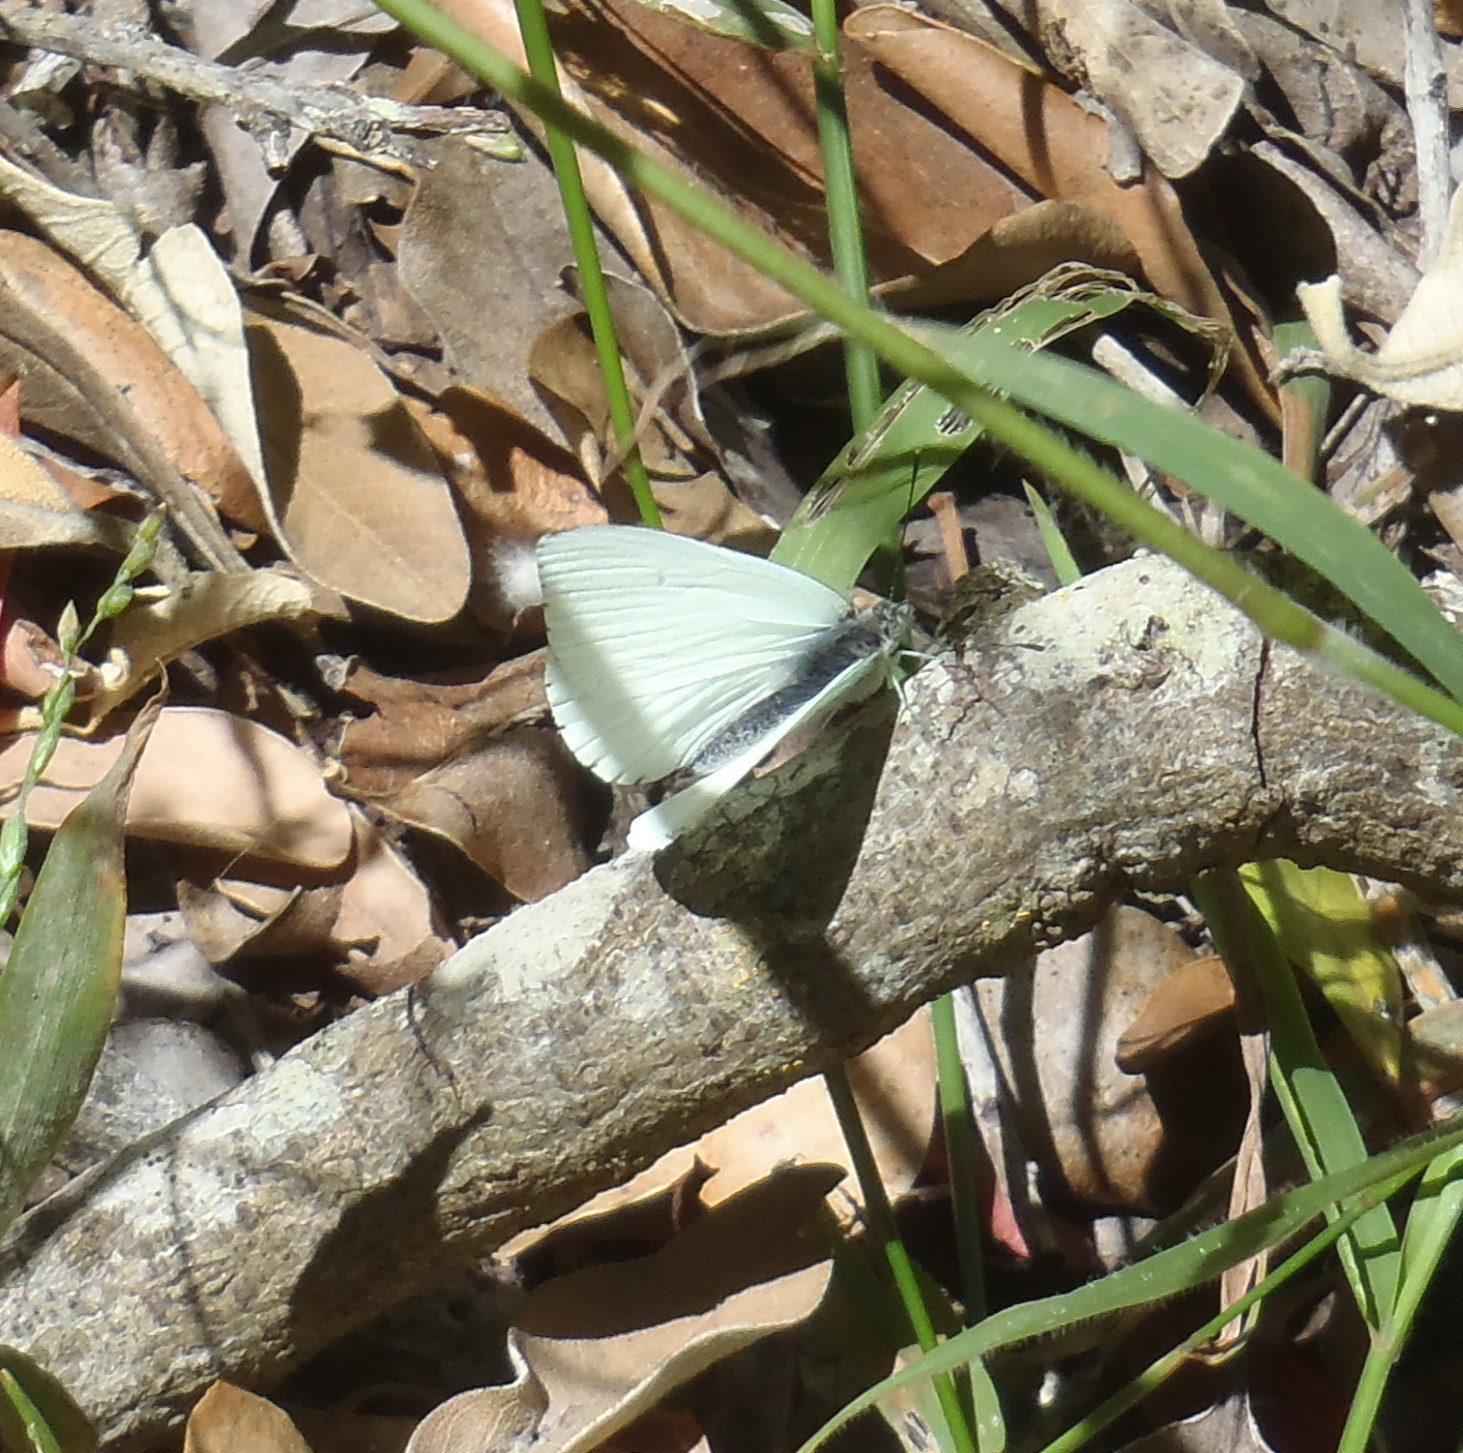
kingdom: Animalia
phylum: Arthropoda
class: Insecta
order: Lepidoptera
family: Pieridae
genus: Dixeia
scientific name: Dixeia charina
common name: African small white
